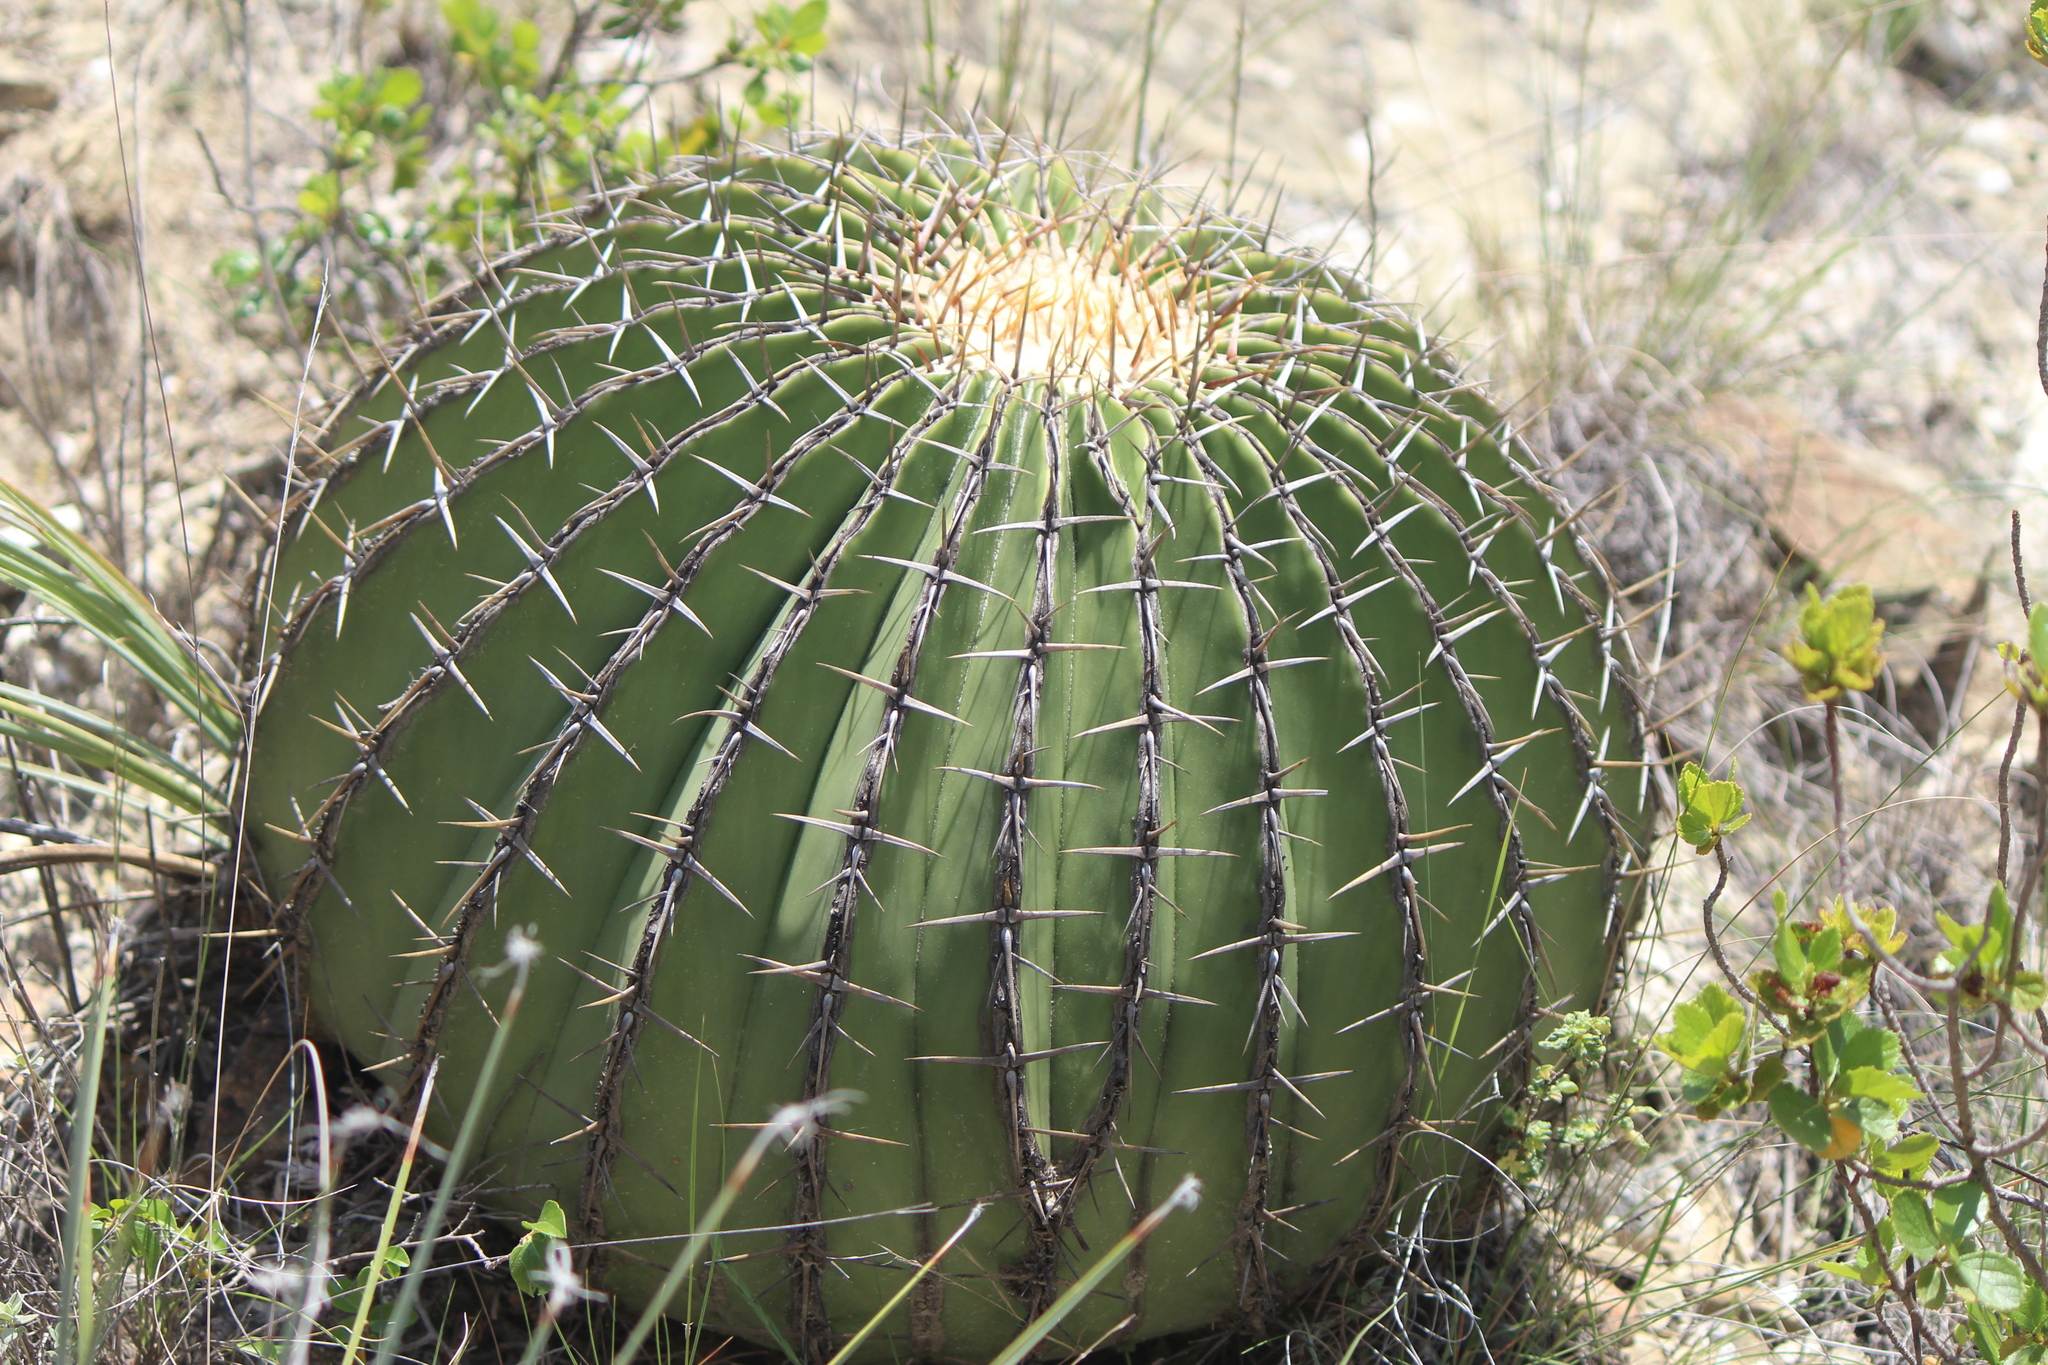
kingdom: Plantae
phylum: Tracheophyta
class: Magnoliopsida
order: Caryophyllales
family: Cactaceae
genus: Echinocactus
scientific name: Echinocactus platyacanthus
